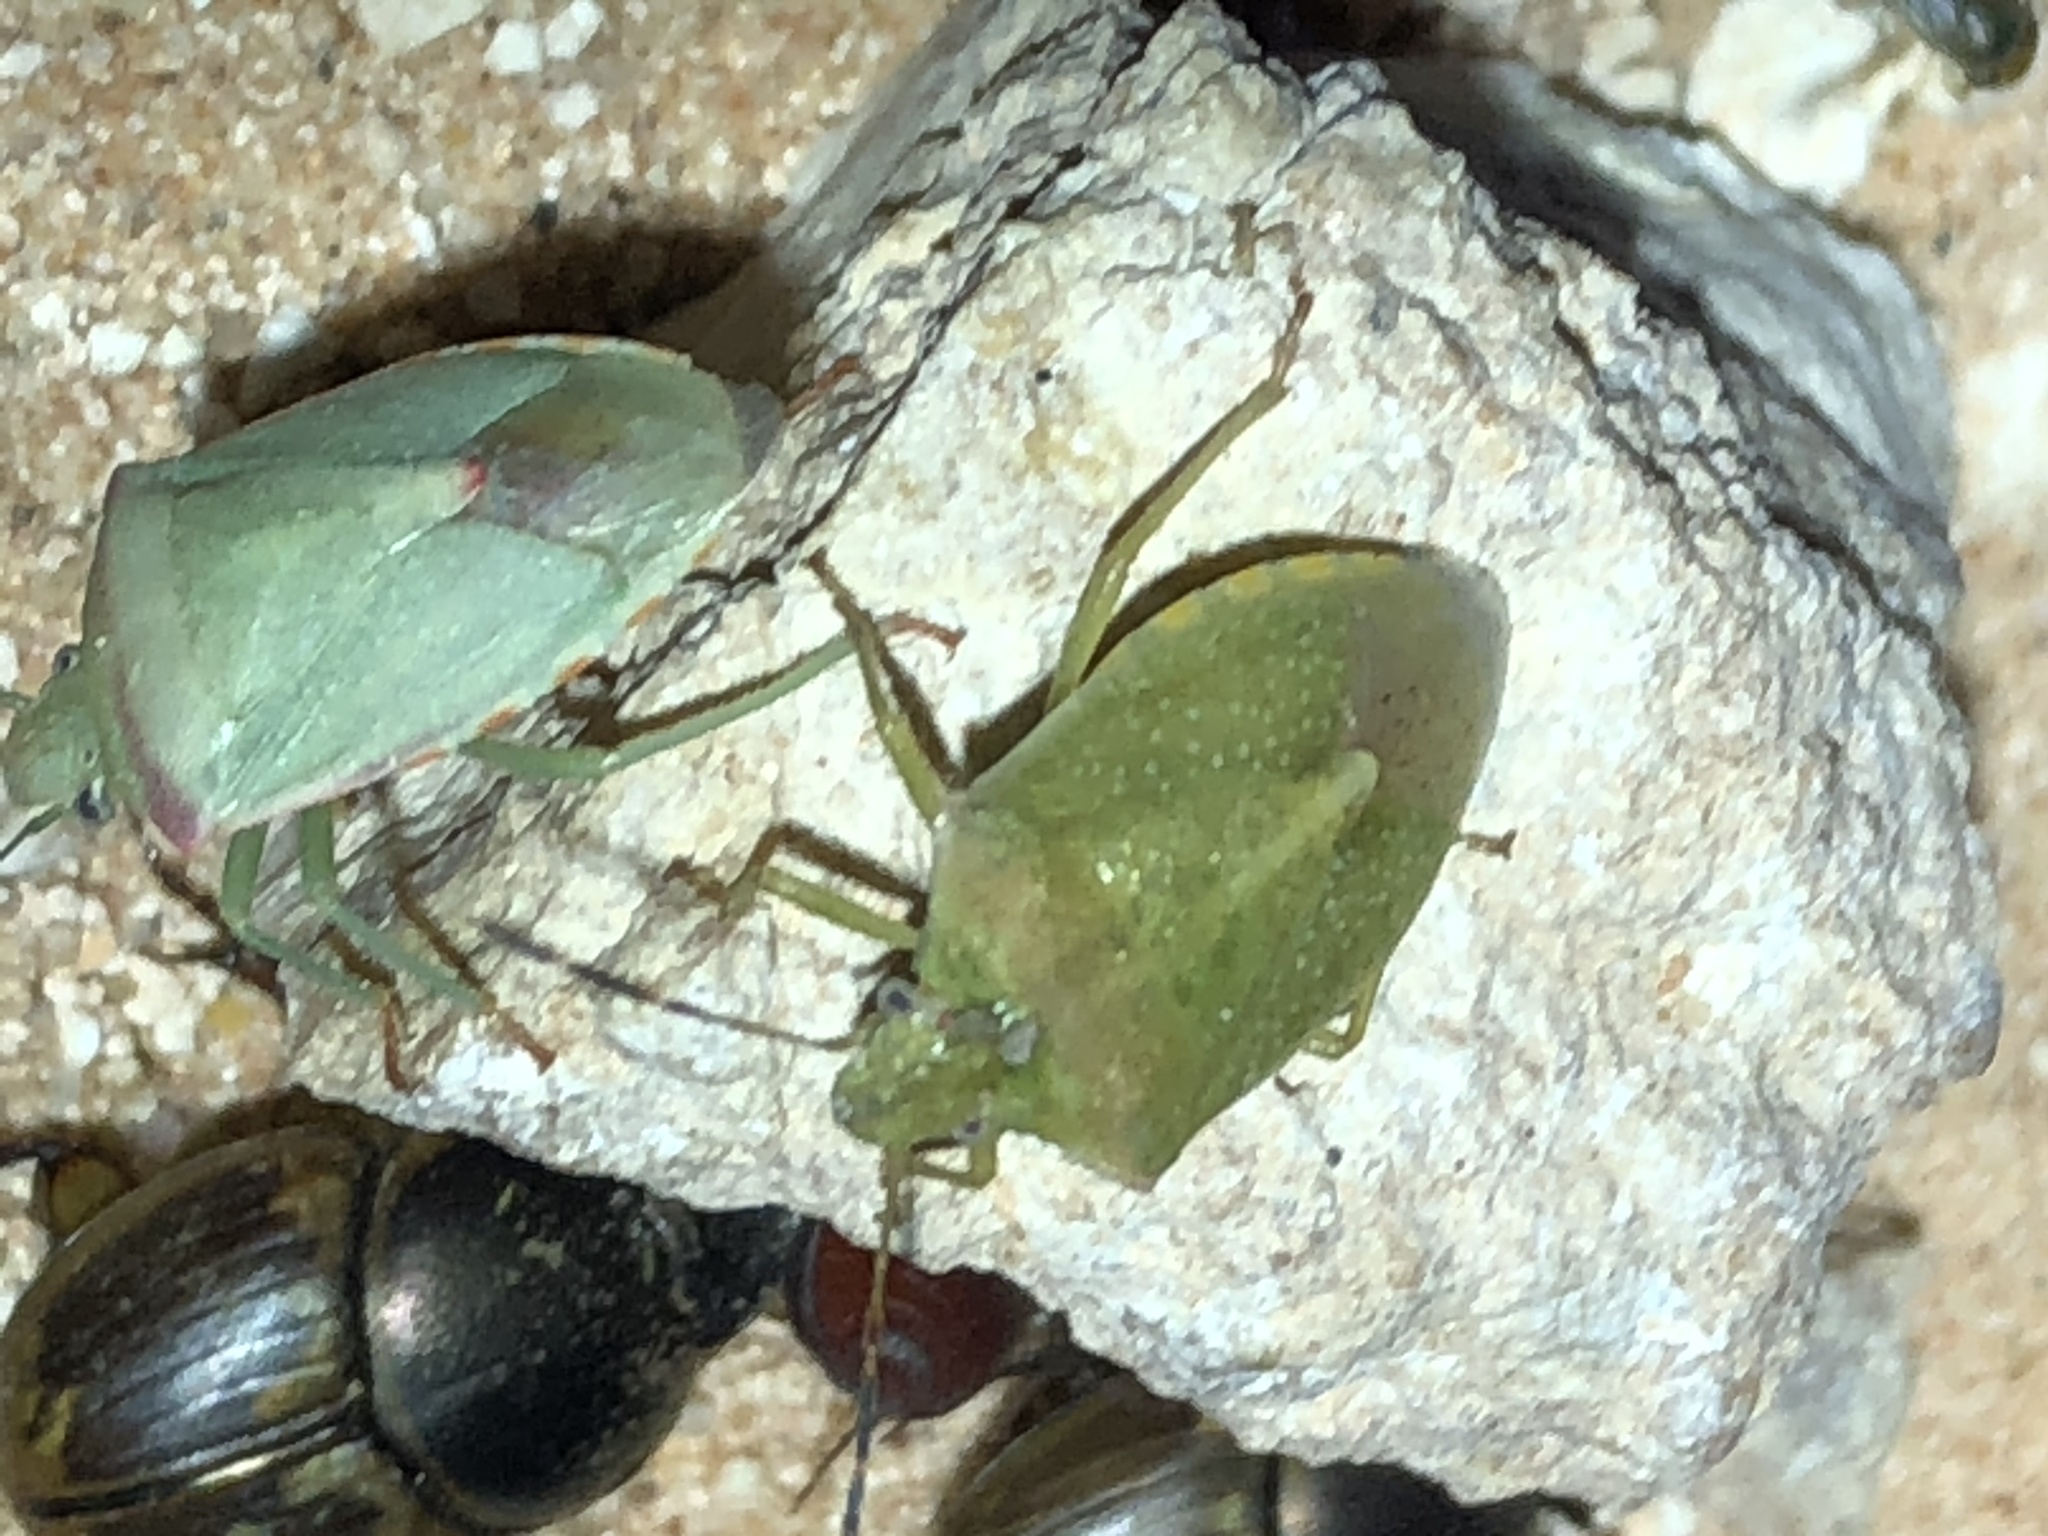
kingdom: Animalia
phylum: Arthropoda
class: Insecta
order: Hemiptera
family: Pentatomidae
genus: Thyanta
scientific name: Thyanta accerra
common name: Stink bug
